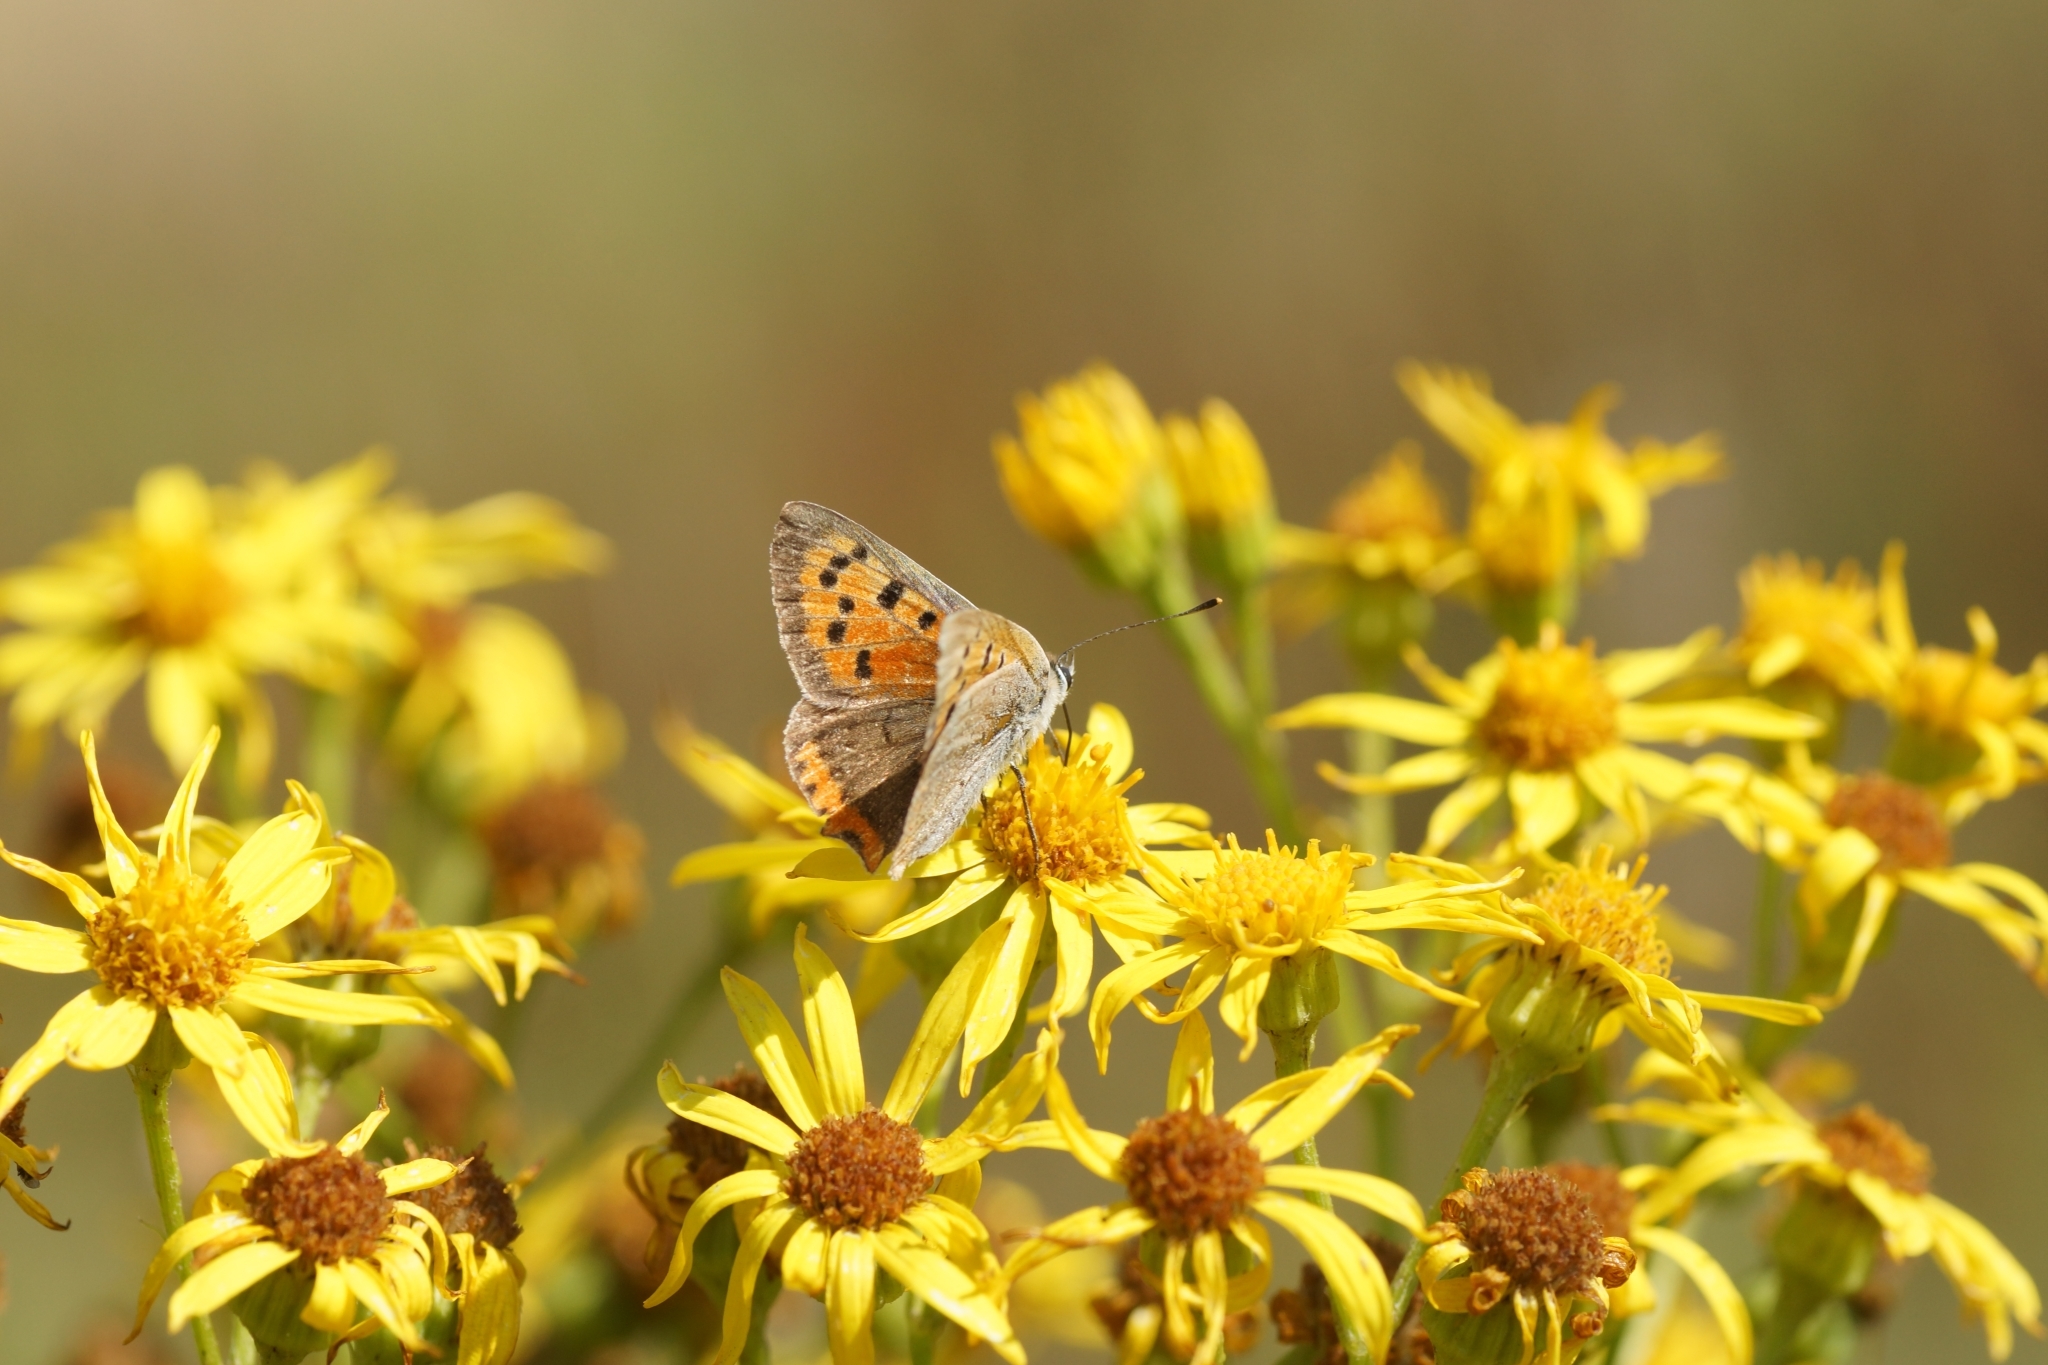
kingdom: Animalia
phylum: Arthropoda
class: Insecta
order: Lepidoptera
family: Lycaenidae
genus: Lycaena
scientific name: Lycaena phlaeas
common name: Small copper
